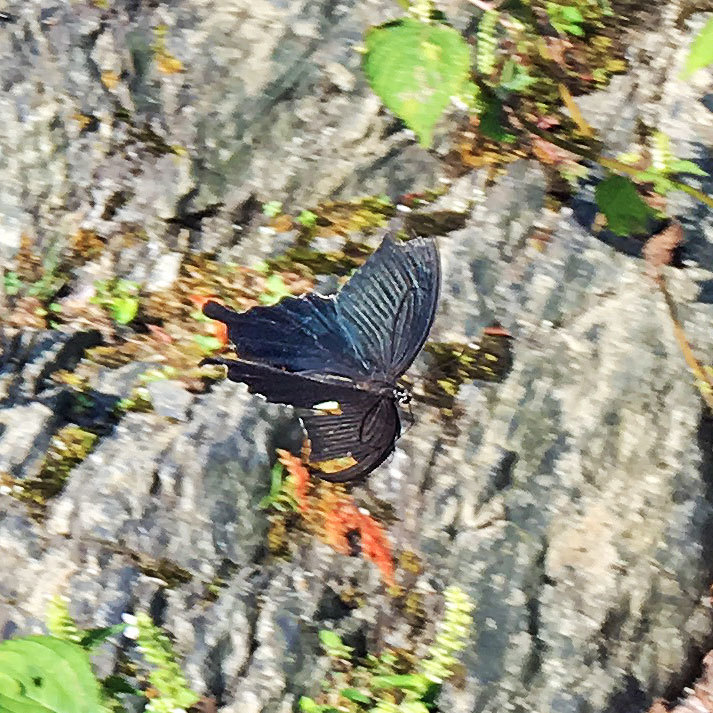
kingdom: Animalia
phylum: Arthropoda
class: Insecta
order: Lepidoptera
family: Papilionidae
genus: Papilio
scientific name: Papilio demetrius
